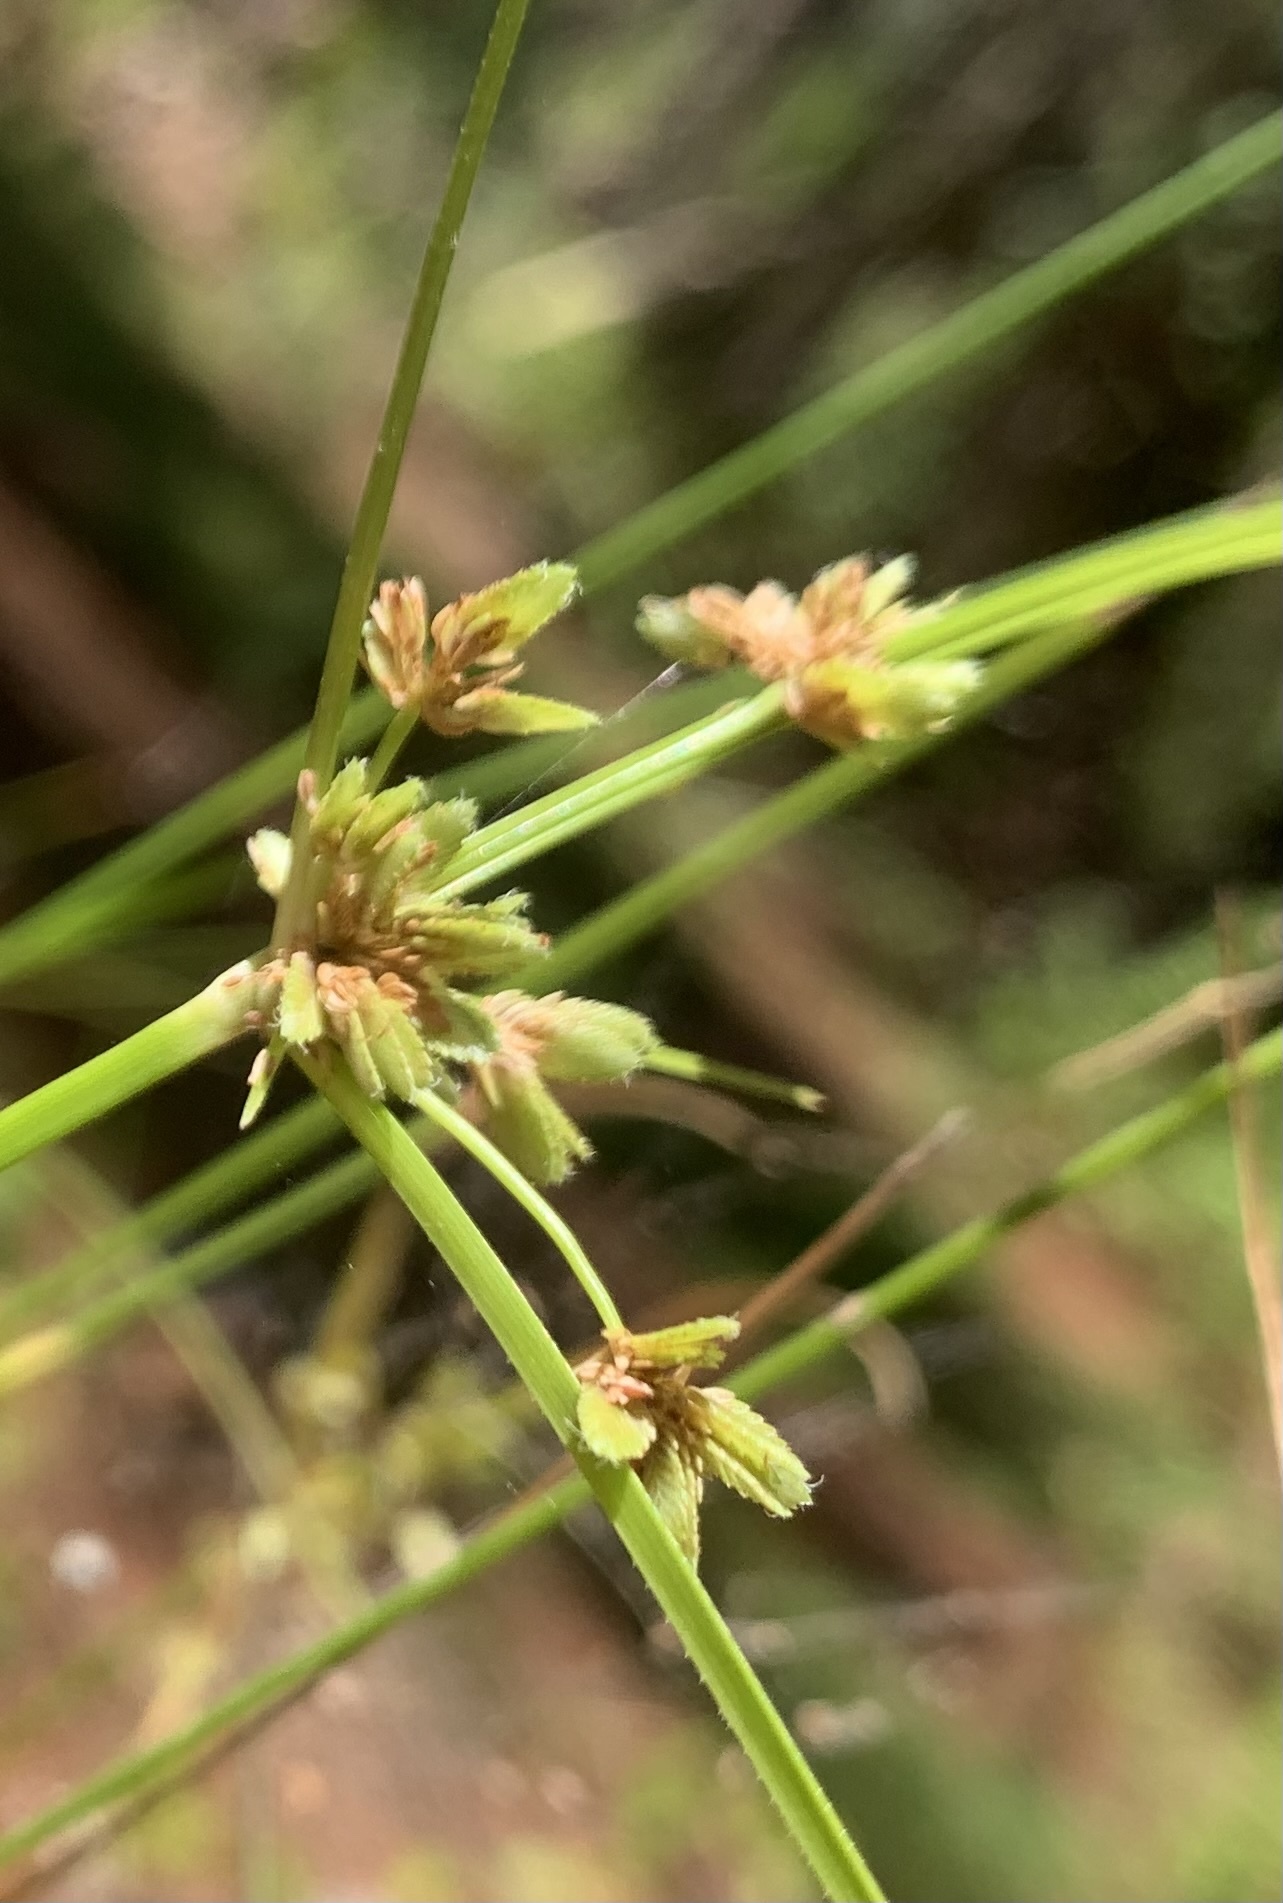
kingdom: Plantae
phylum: Tracheophyta
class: Liliopsida
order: Poales
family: Cyperaceae
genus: Cyperus
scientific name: Cyperus surinamensis
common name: Tropical flat sedge
